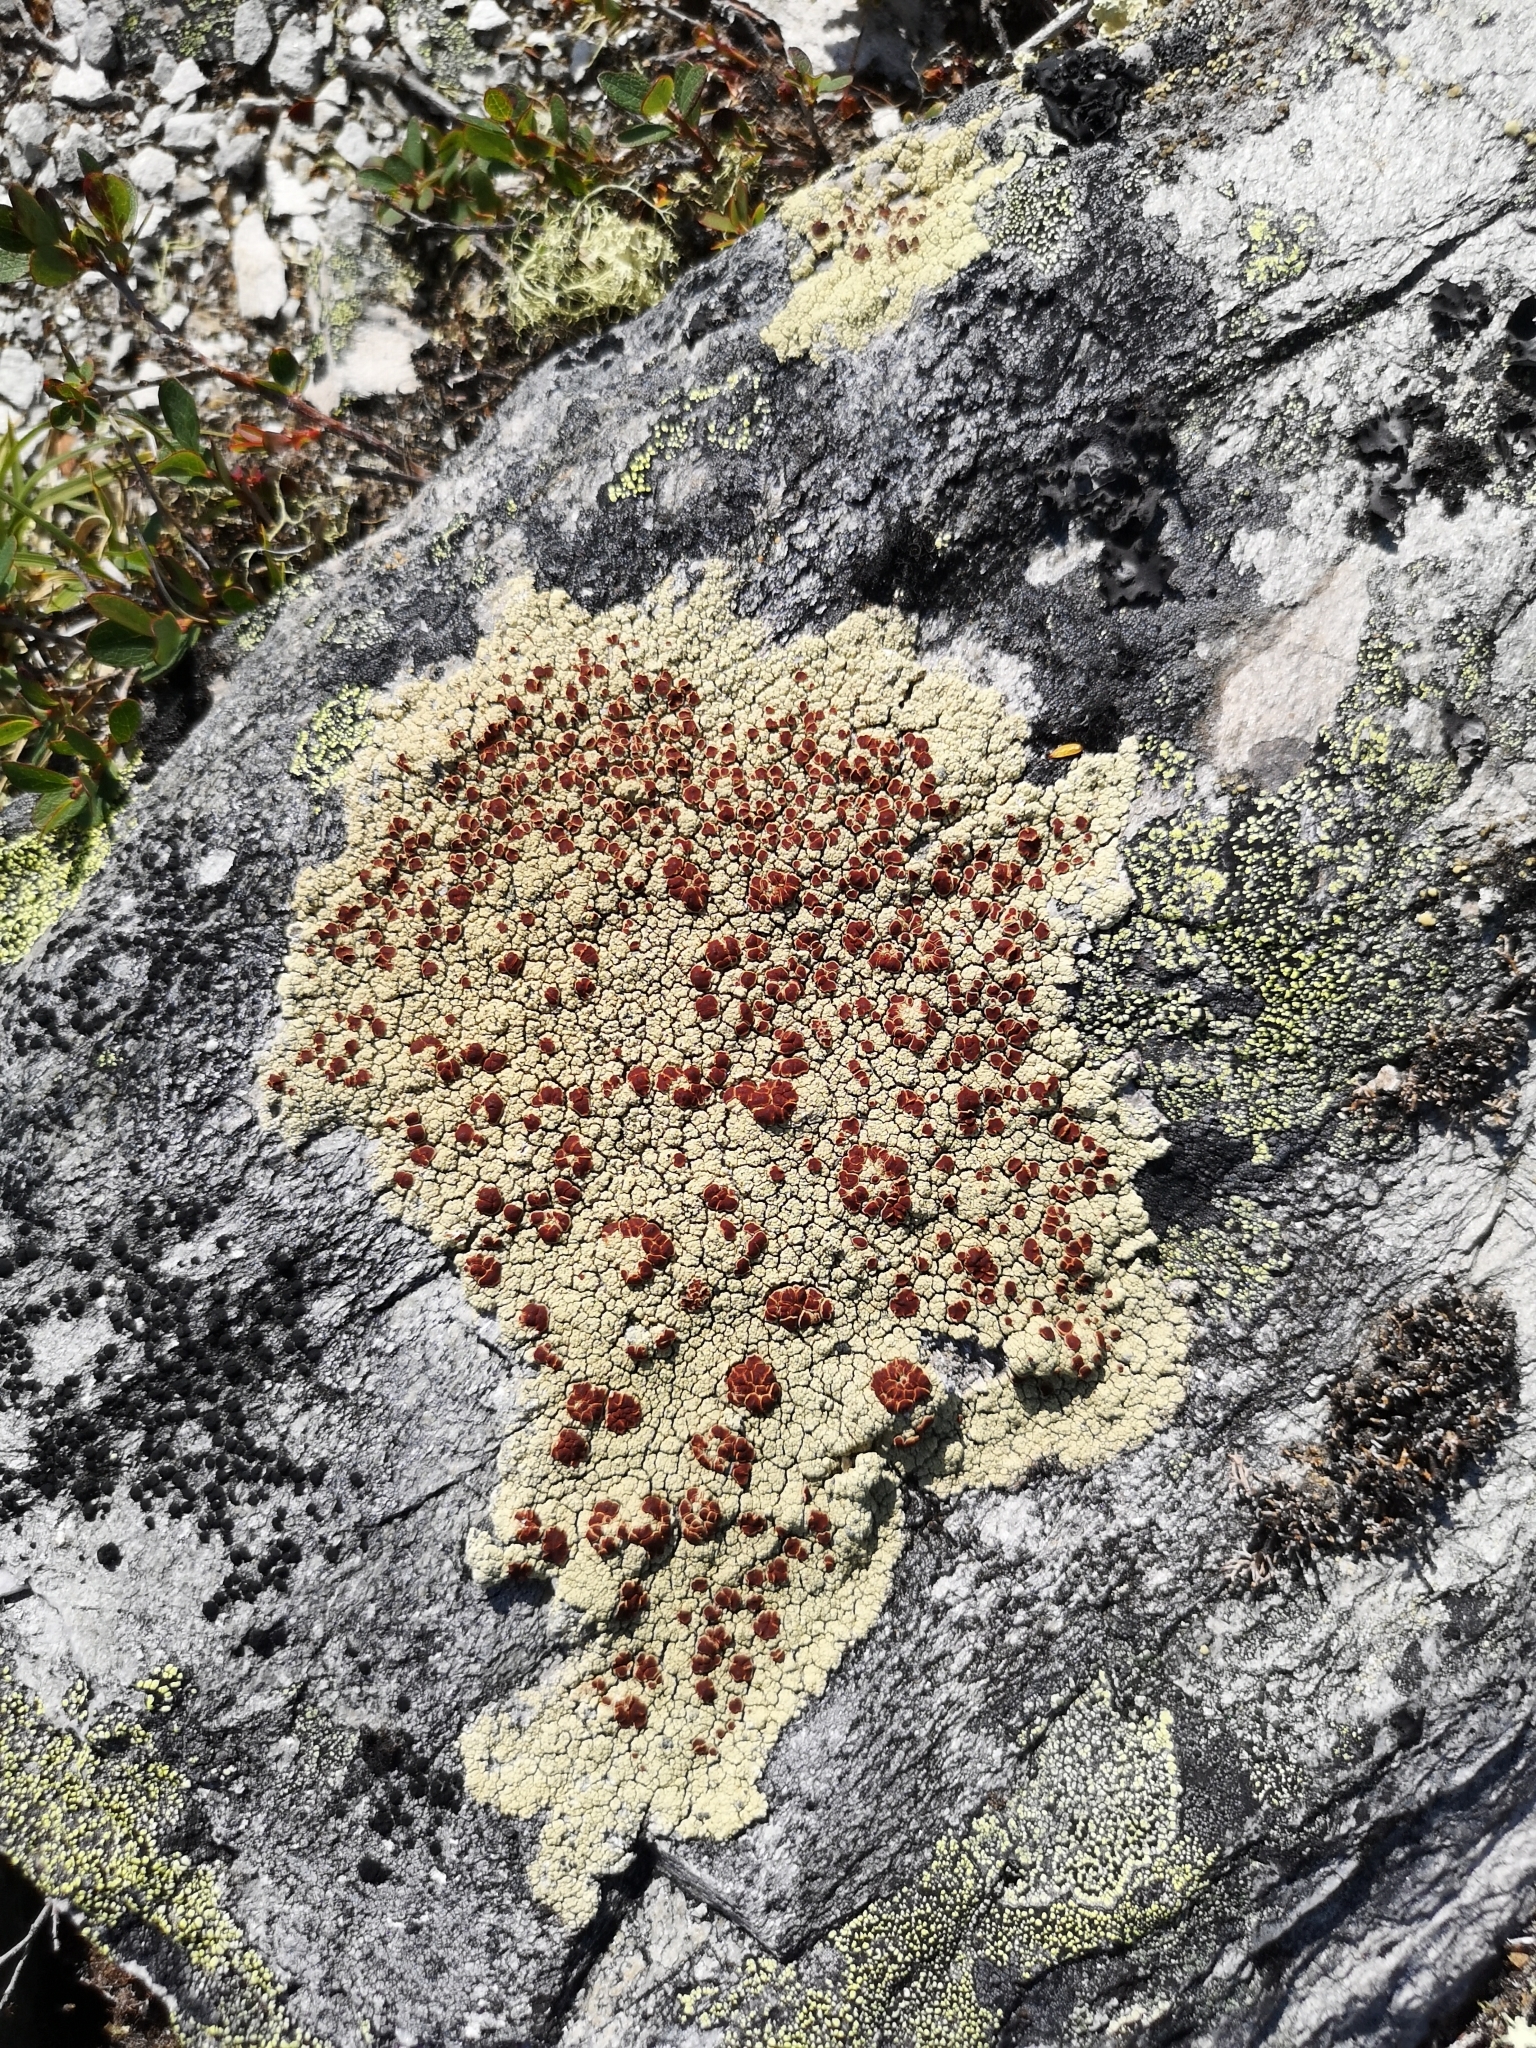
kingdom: Fungi
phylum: Ascomycota
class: Lecanoromycetes
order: Umbilicariales
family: Ophioparmaceae
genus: Ophioparma
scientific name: Ophioparma ventosa
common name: Blood-spot
